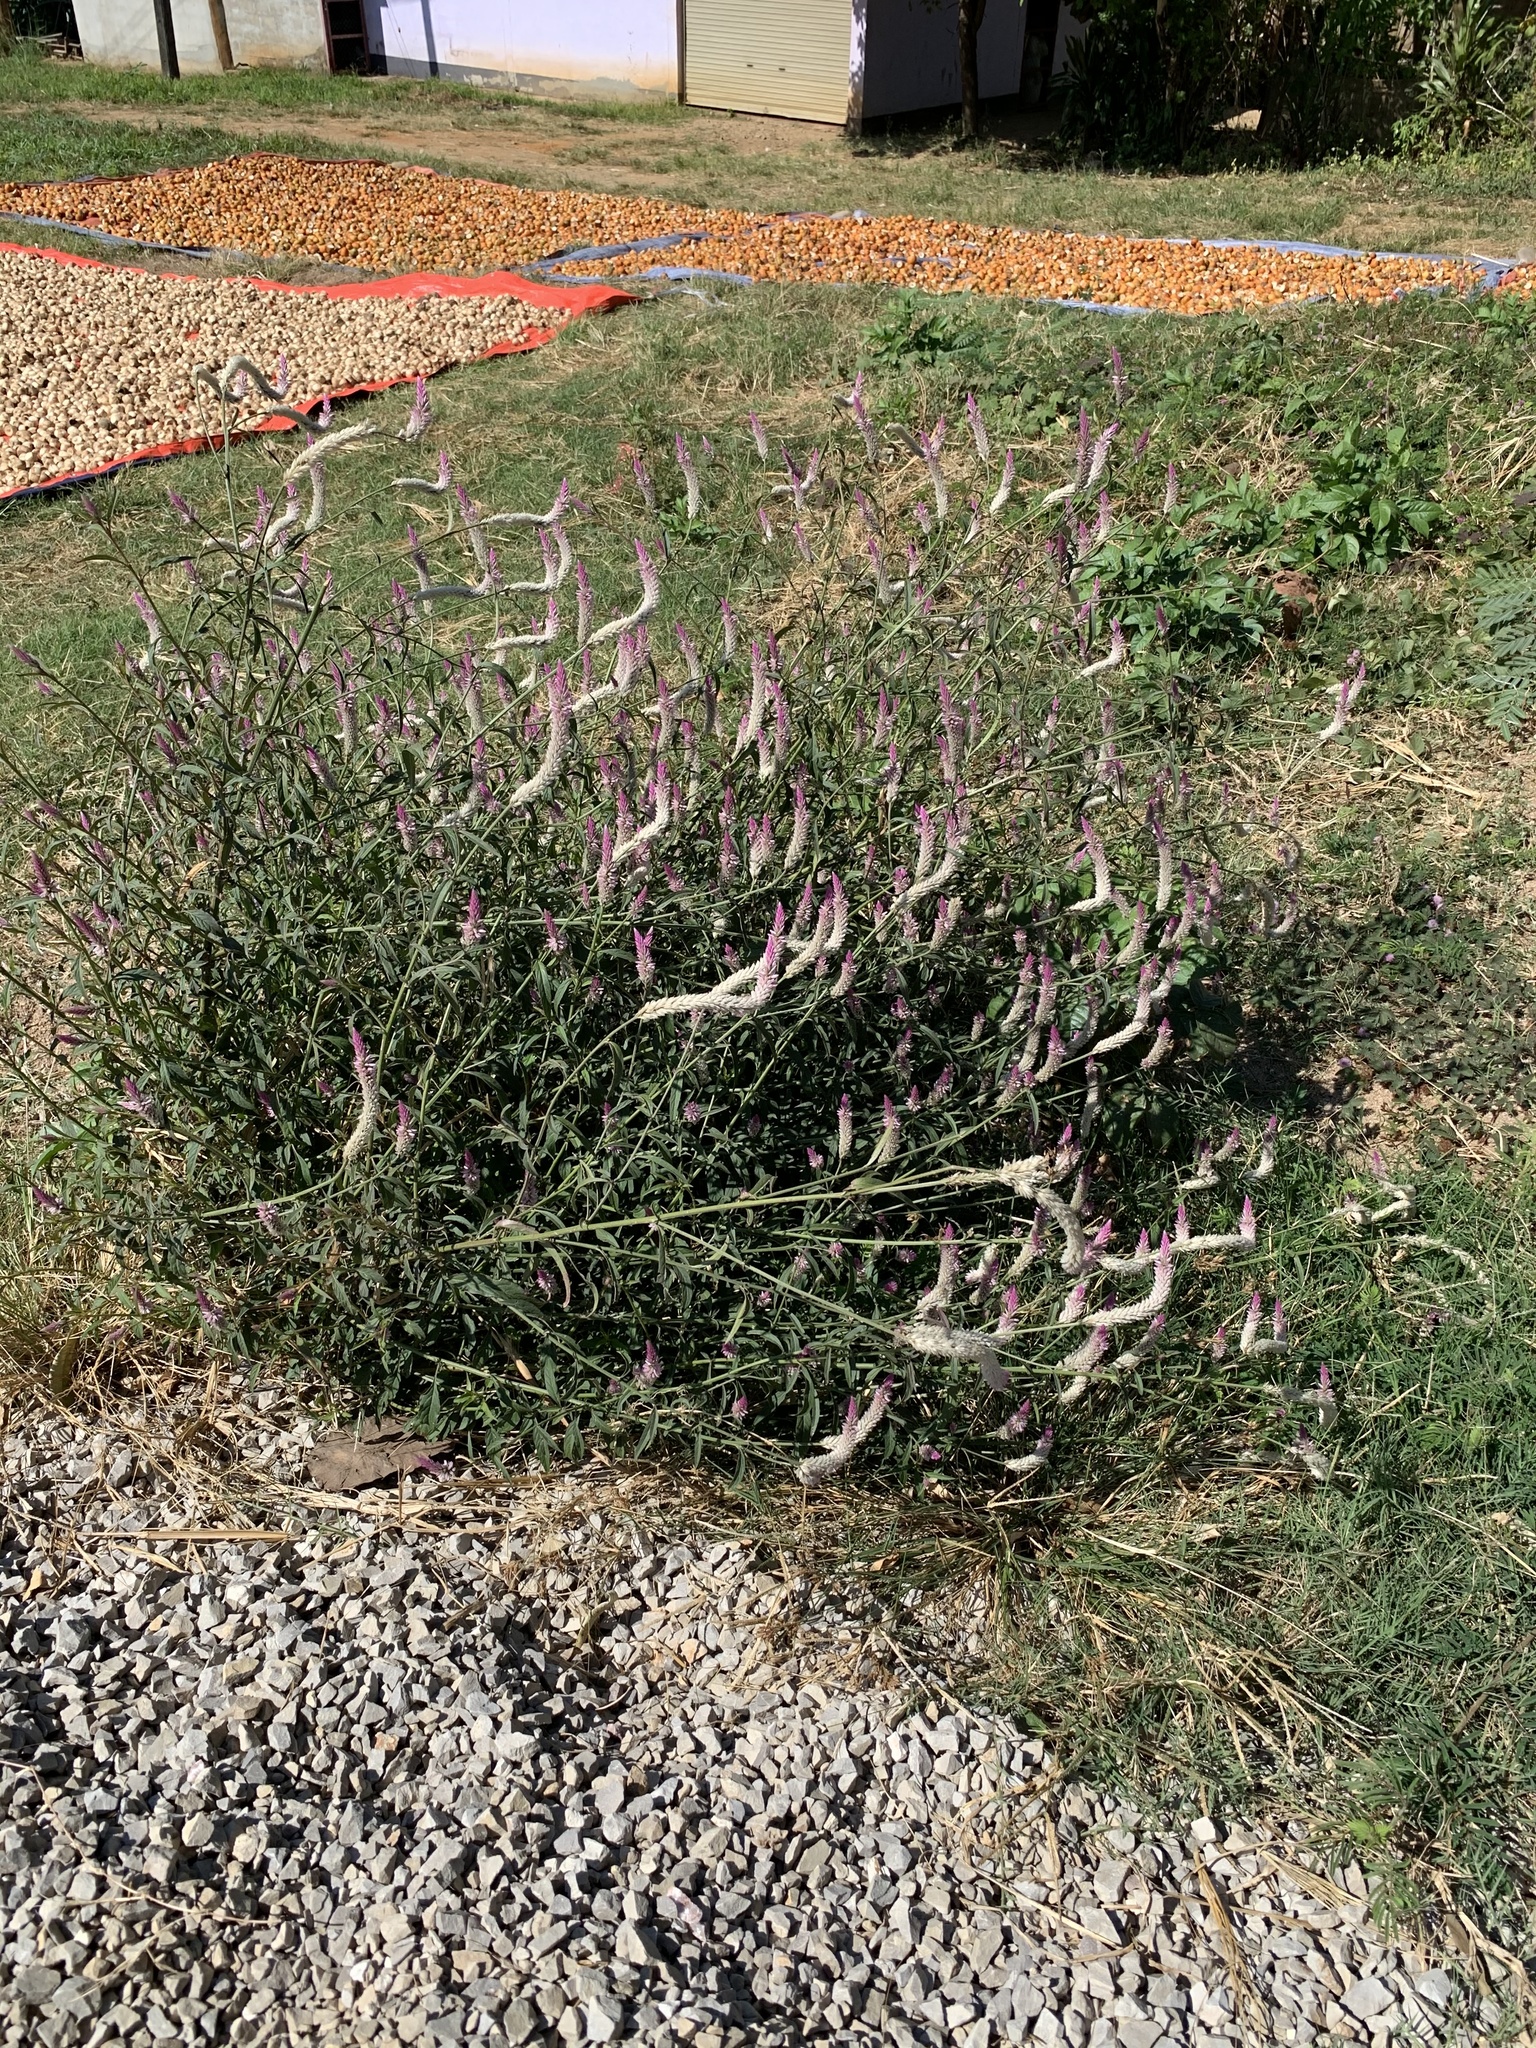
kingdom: Plantae
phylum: Tracheophyta
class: Magnoliopsida
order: Caryophyllales
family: Amaranthaceae
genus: Celosia
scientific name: Celosia argentea
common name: Feather cockscomb
